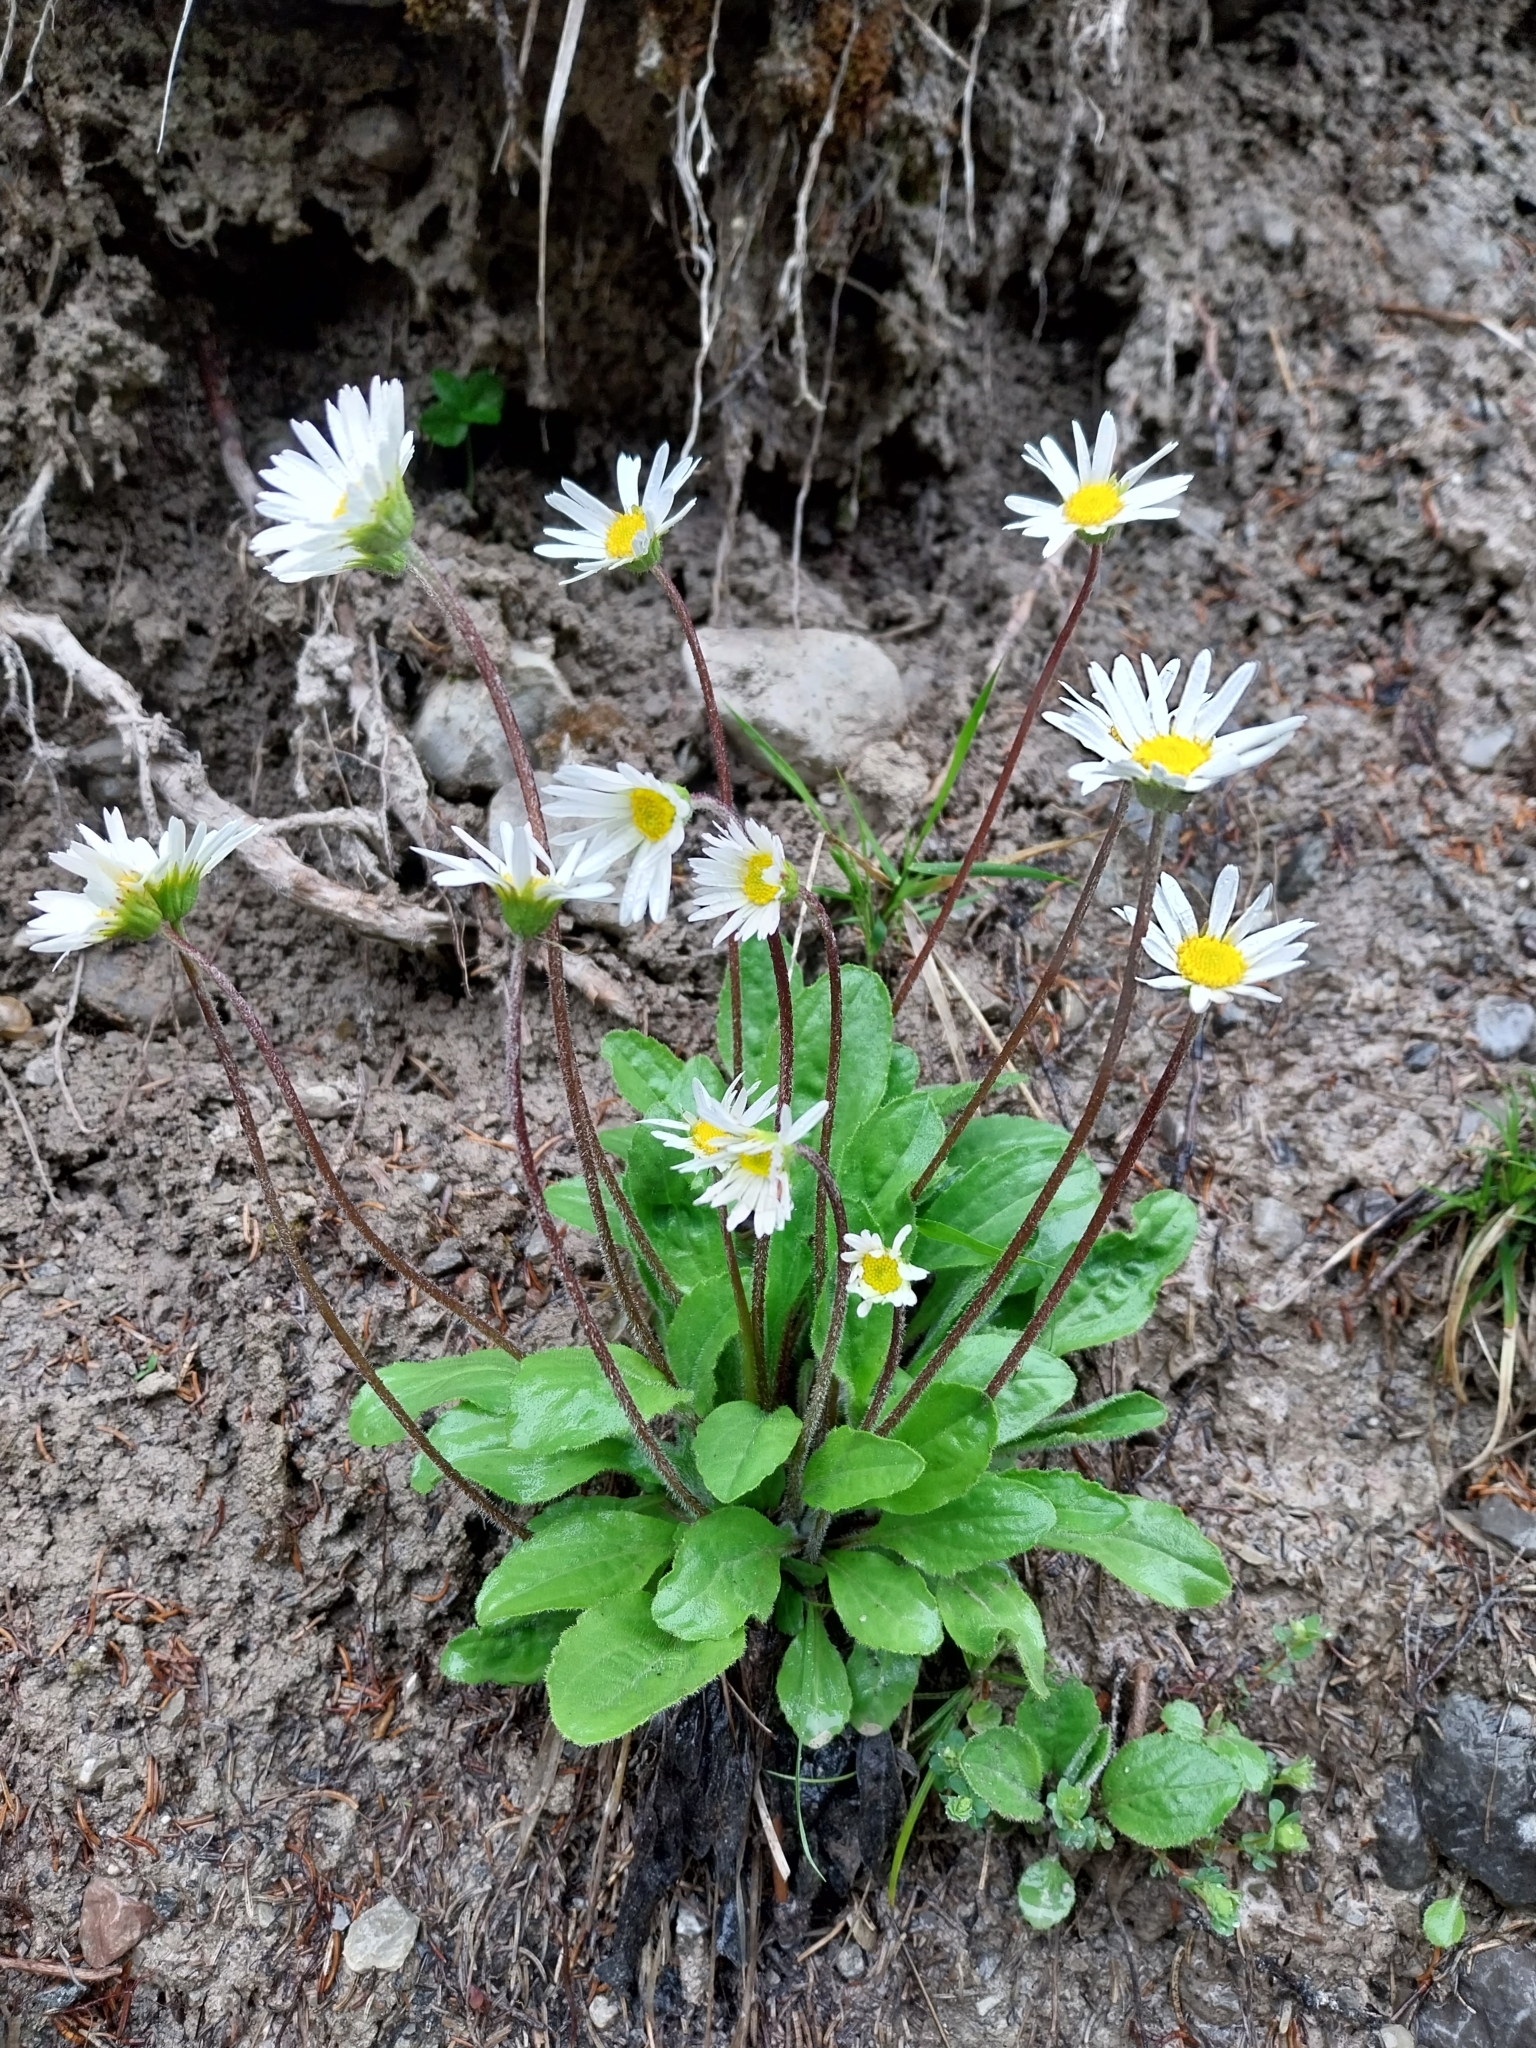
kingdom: Plantae
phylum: Tracheophyta
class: Magnoliopsida
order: Asterales
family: Asteraceae
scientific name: Asteraceae
